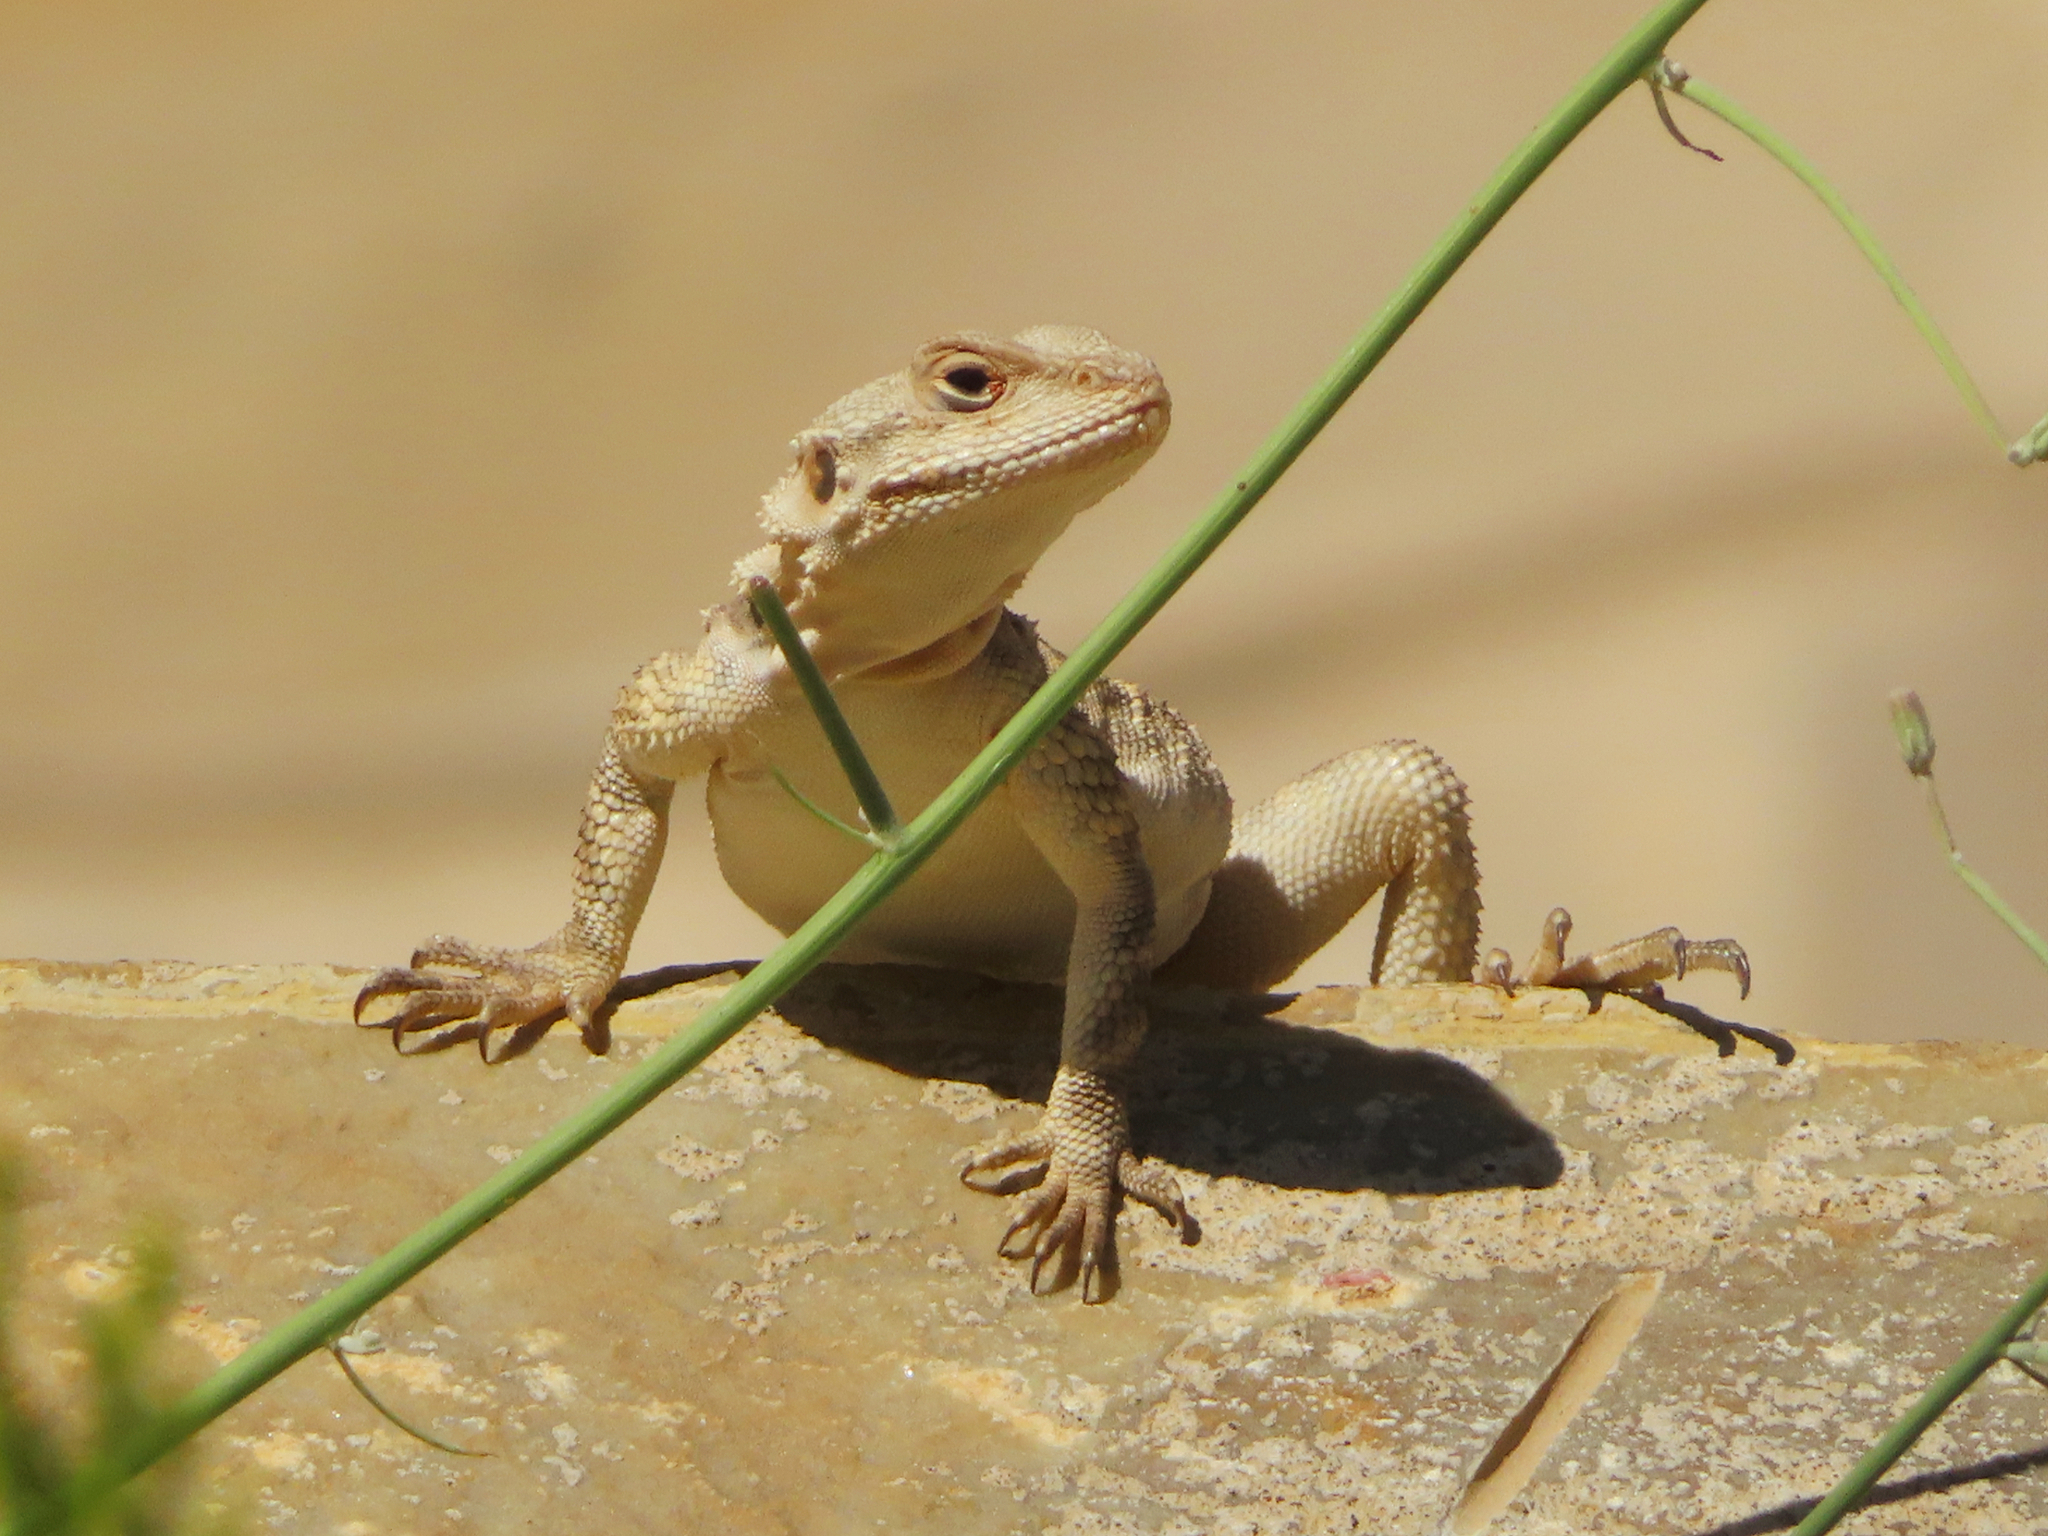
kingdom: Animalia
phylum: Chordata
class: Squamata
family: Agamidae
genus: Paralaudakia
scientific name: Paralaudakia caucasia
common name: Caucasian agama
